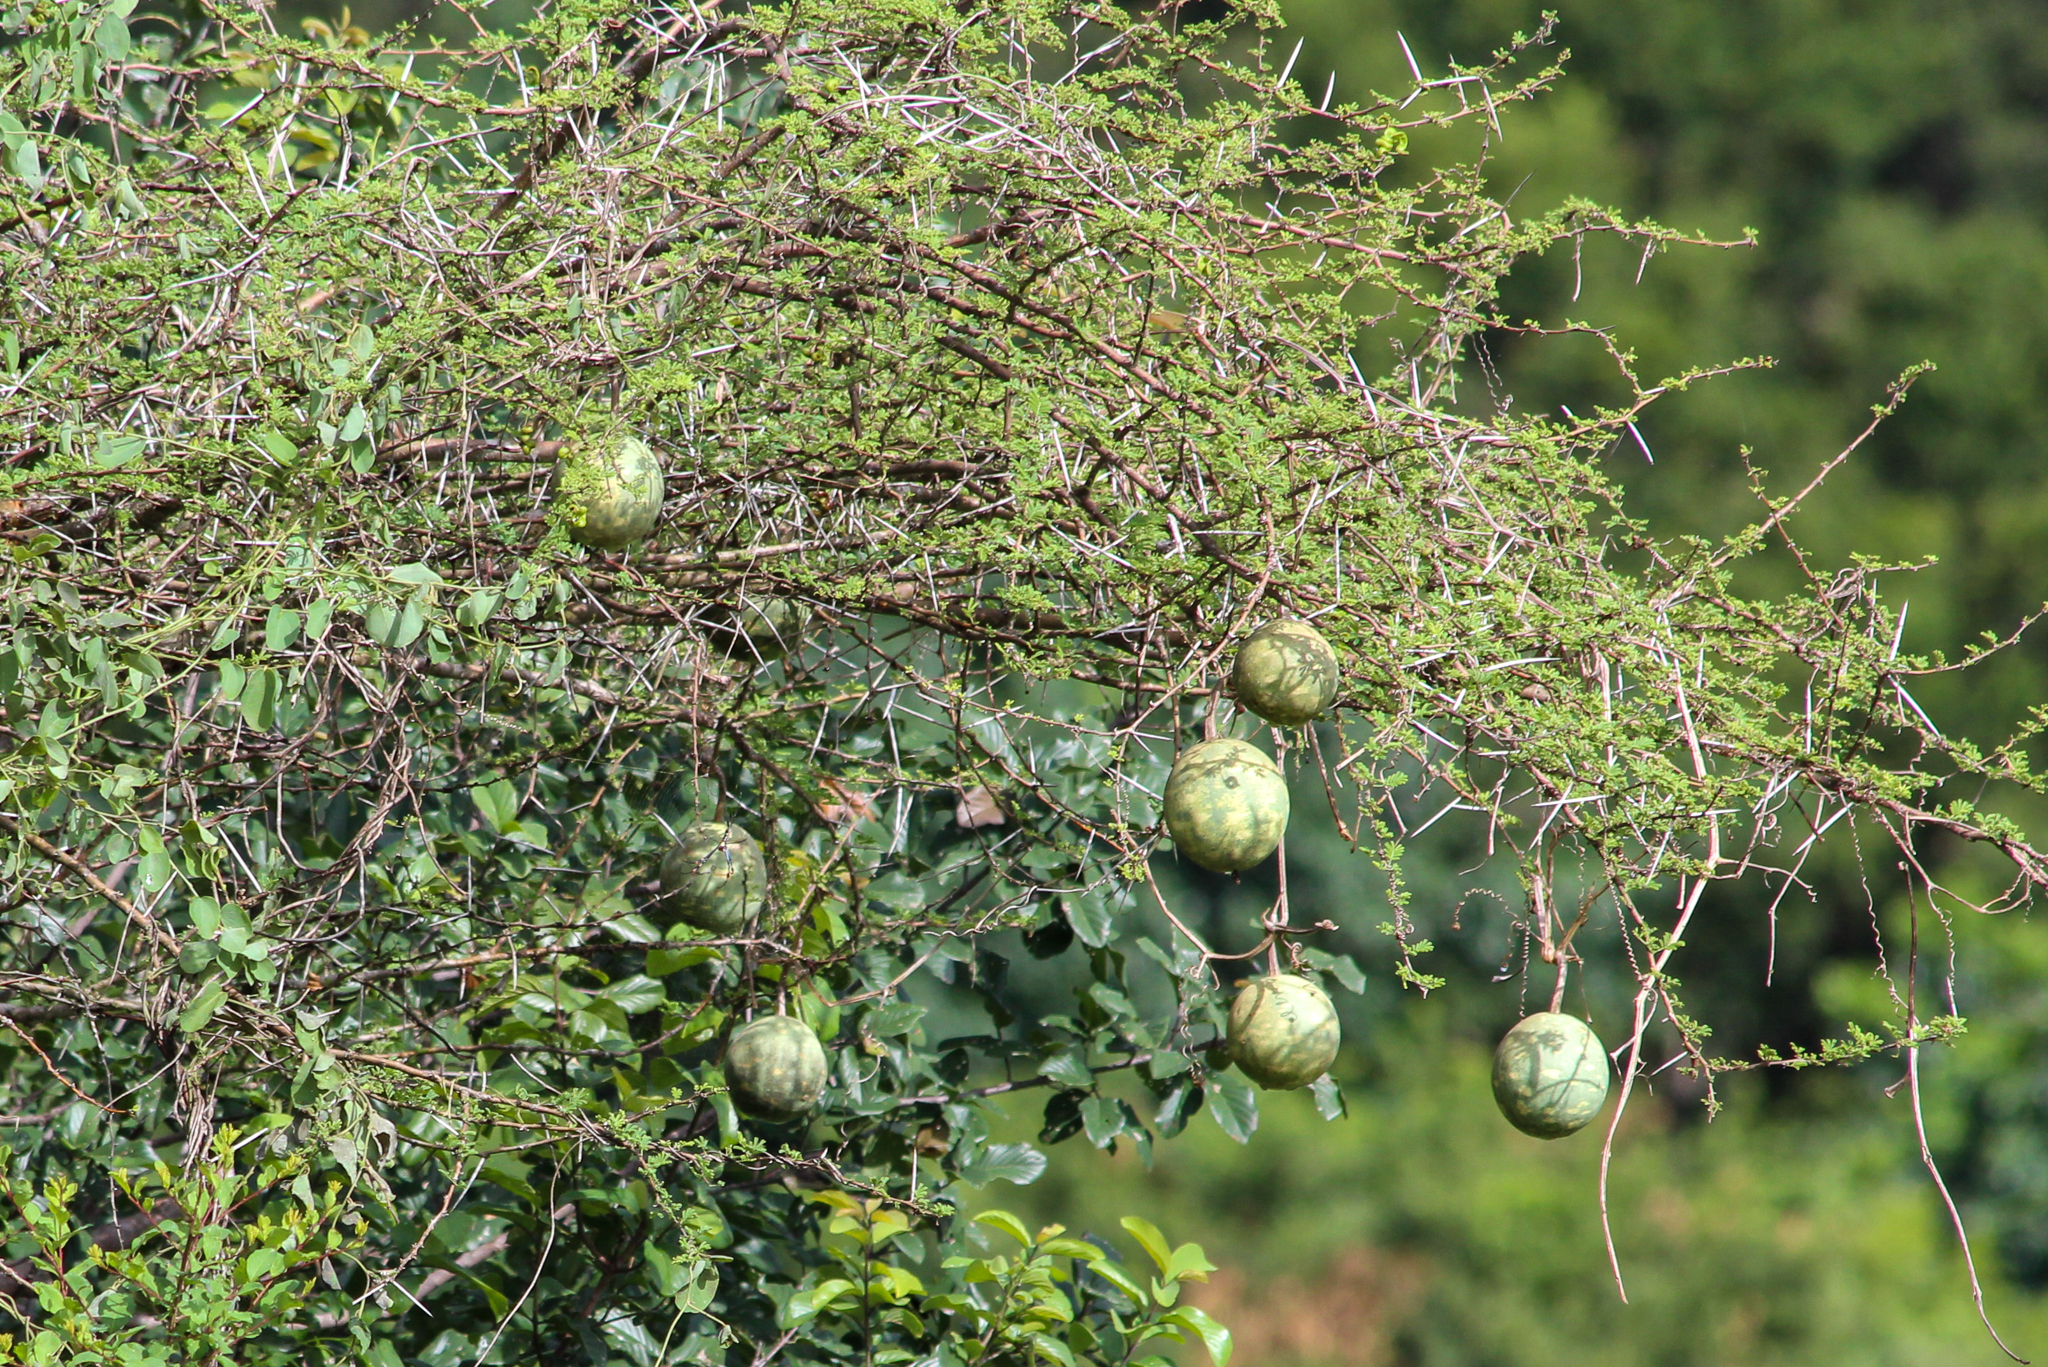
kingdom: Plantae
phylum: Tracheophyta
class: Magnoliopsida
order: Cucurbitales
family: Cucurbitaceae
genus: Lagenaria
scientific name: Lagenaria sphaerica
